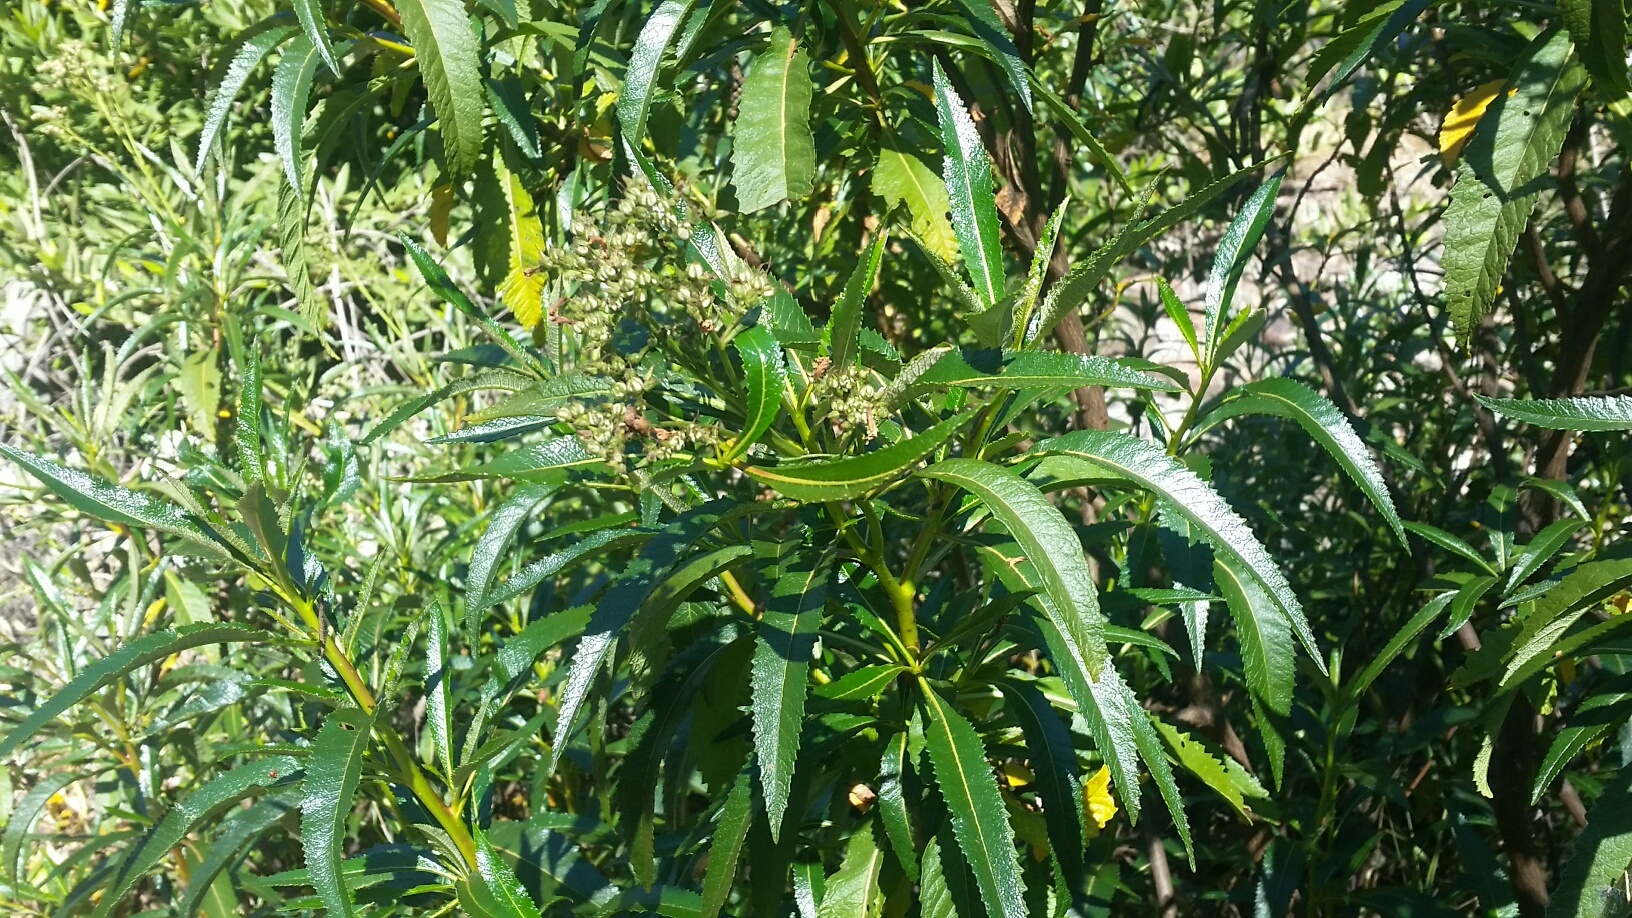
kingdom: Plantae
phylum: Tracheophyta
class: Magnoliopsida
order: Boraginales
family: Namaceae
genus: Eriodictyon
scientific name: Eriodictyon californicum
